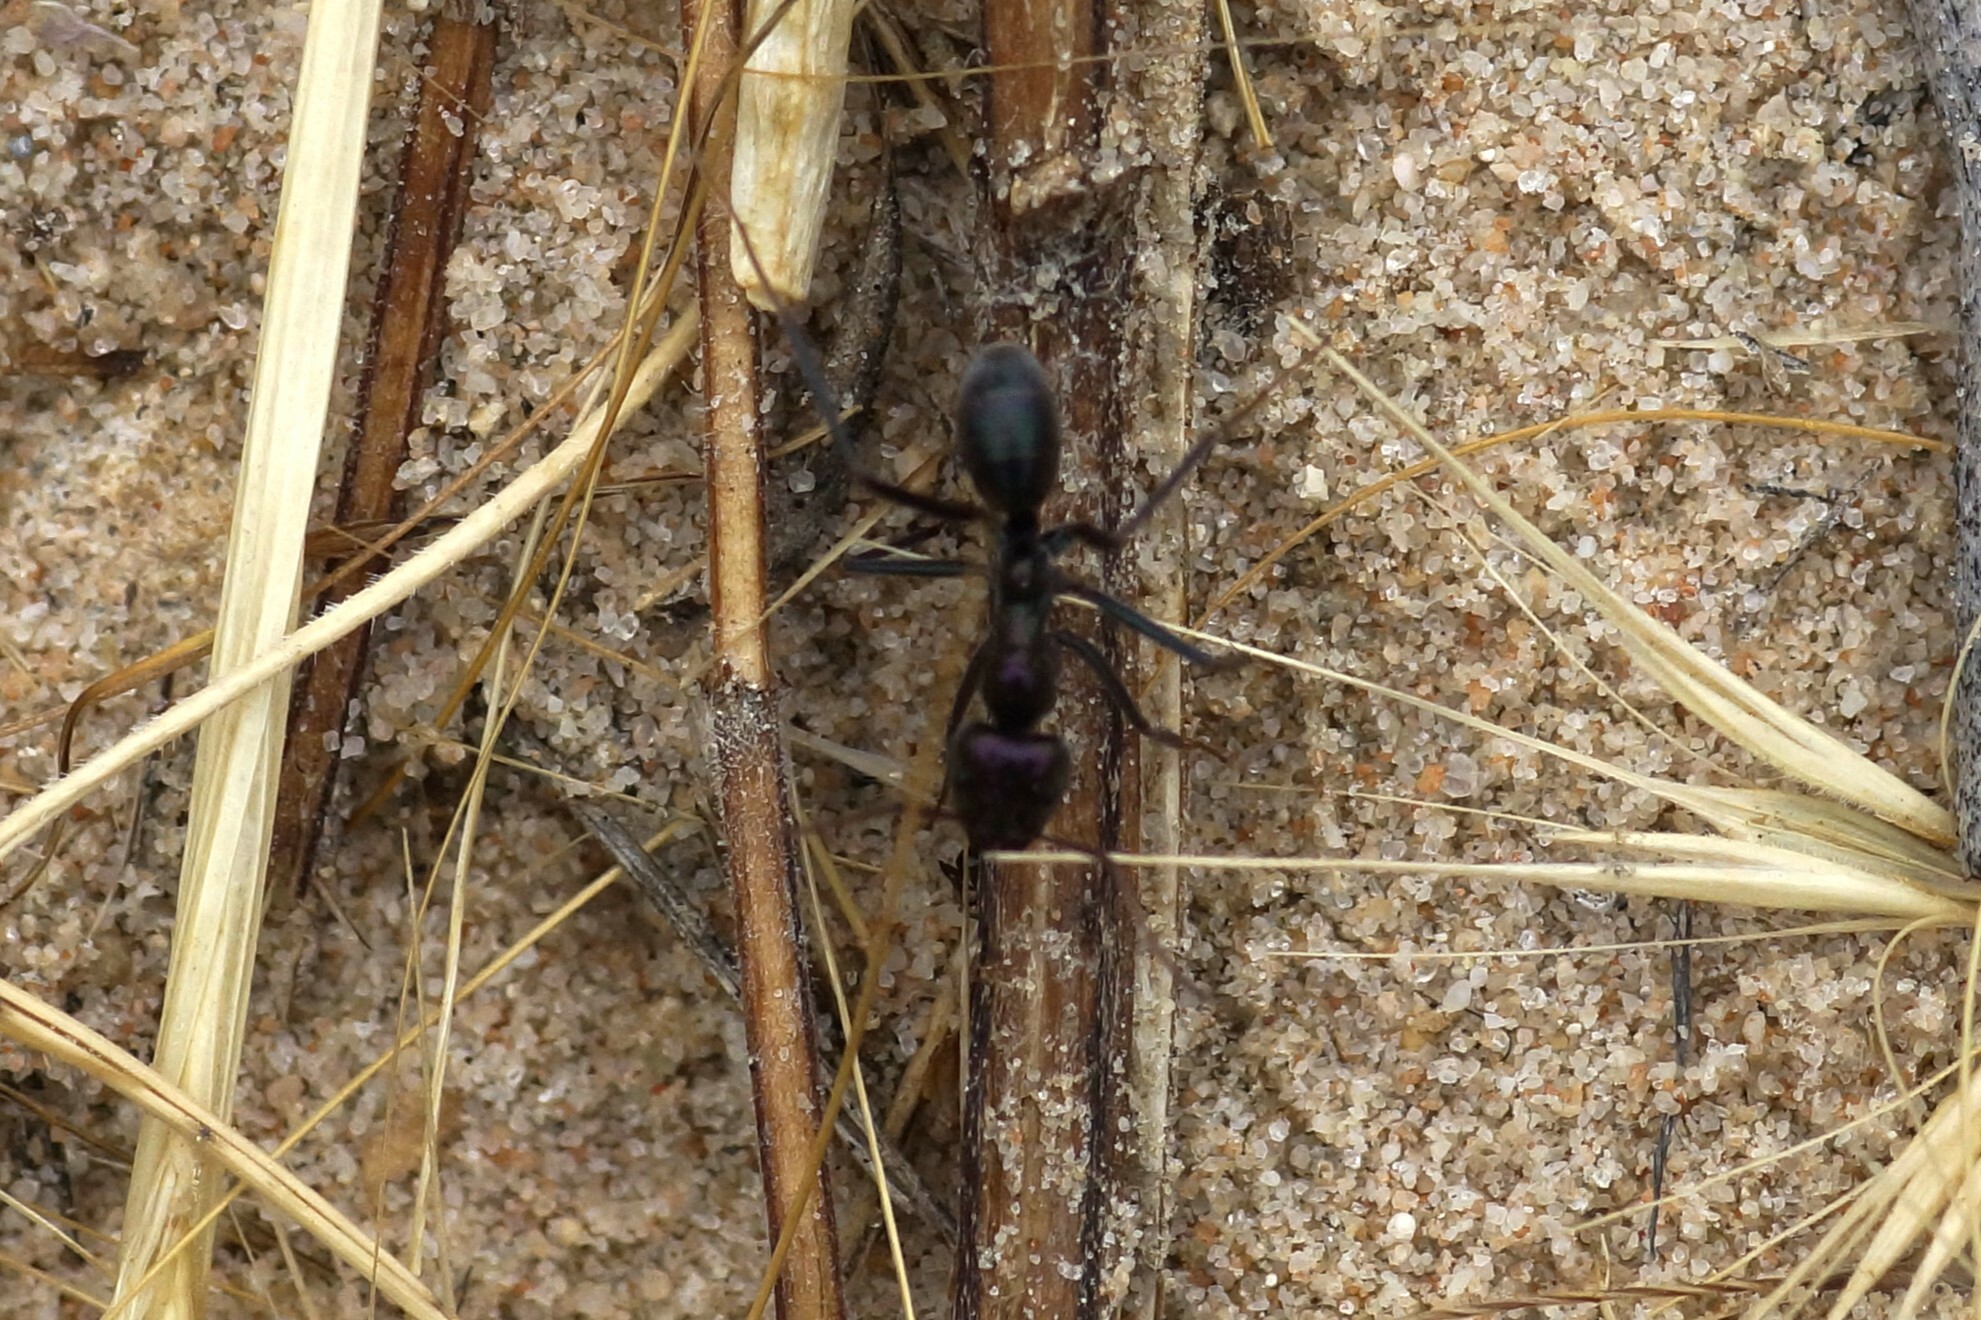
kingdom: Animalia
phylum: Arthropoda
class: Insecta
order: Hymenoptera
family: Formicidae
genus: Iridomyrmex
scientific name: Iridomyrmex viridiaeneus
